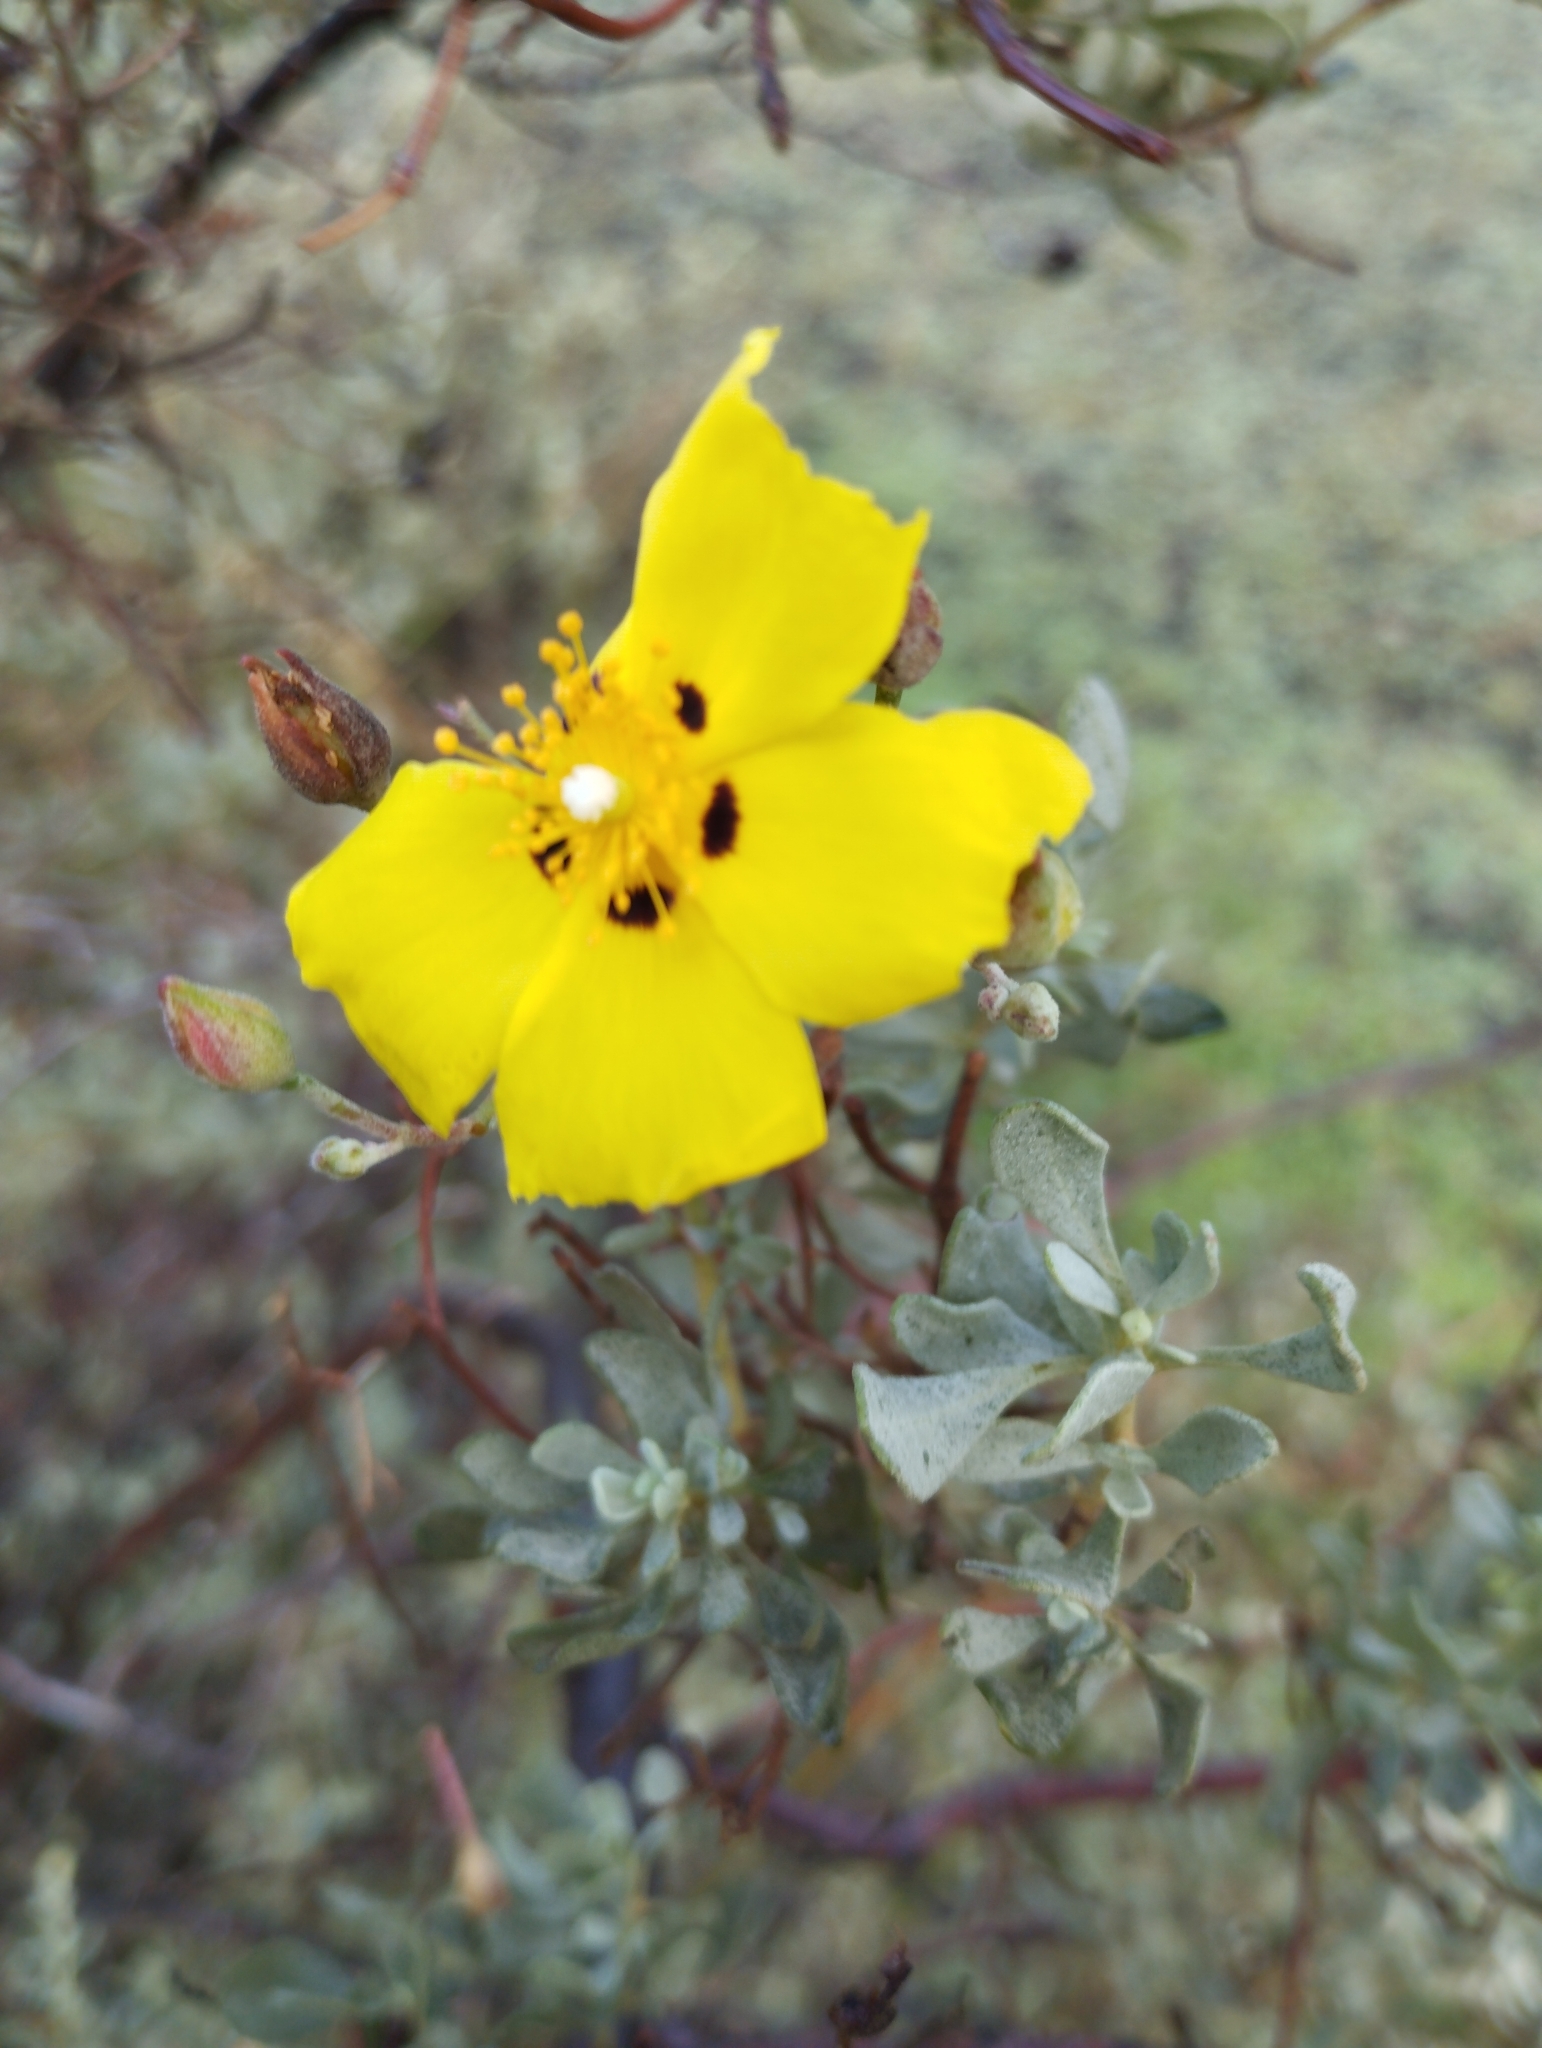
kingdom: Plantae
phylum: Tracheophyta
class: Magnoliopsida
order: Malvales
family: Cistaceae
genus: Halimium
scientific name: Halimium halimifolium
